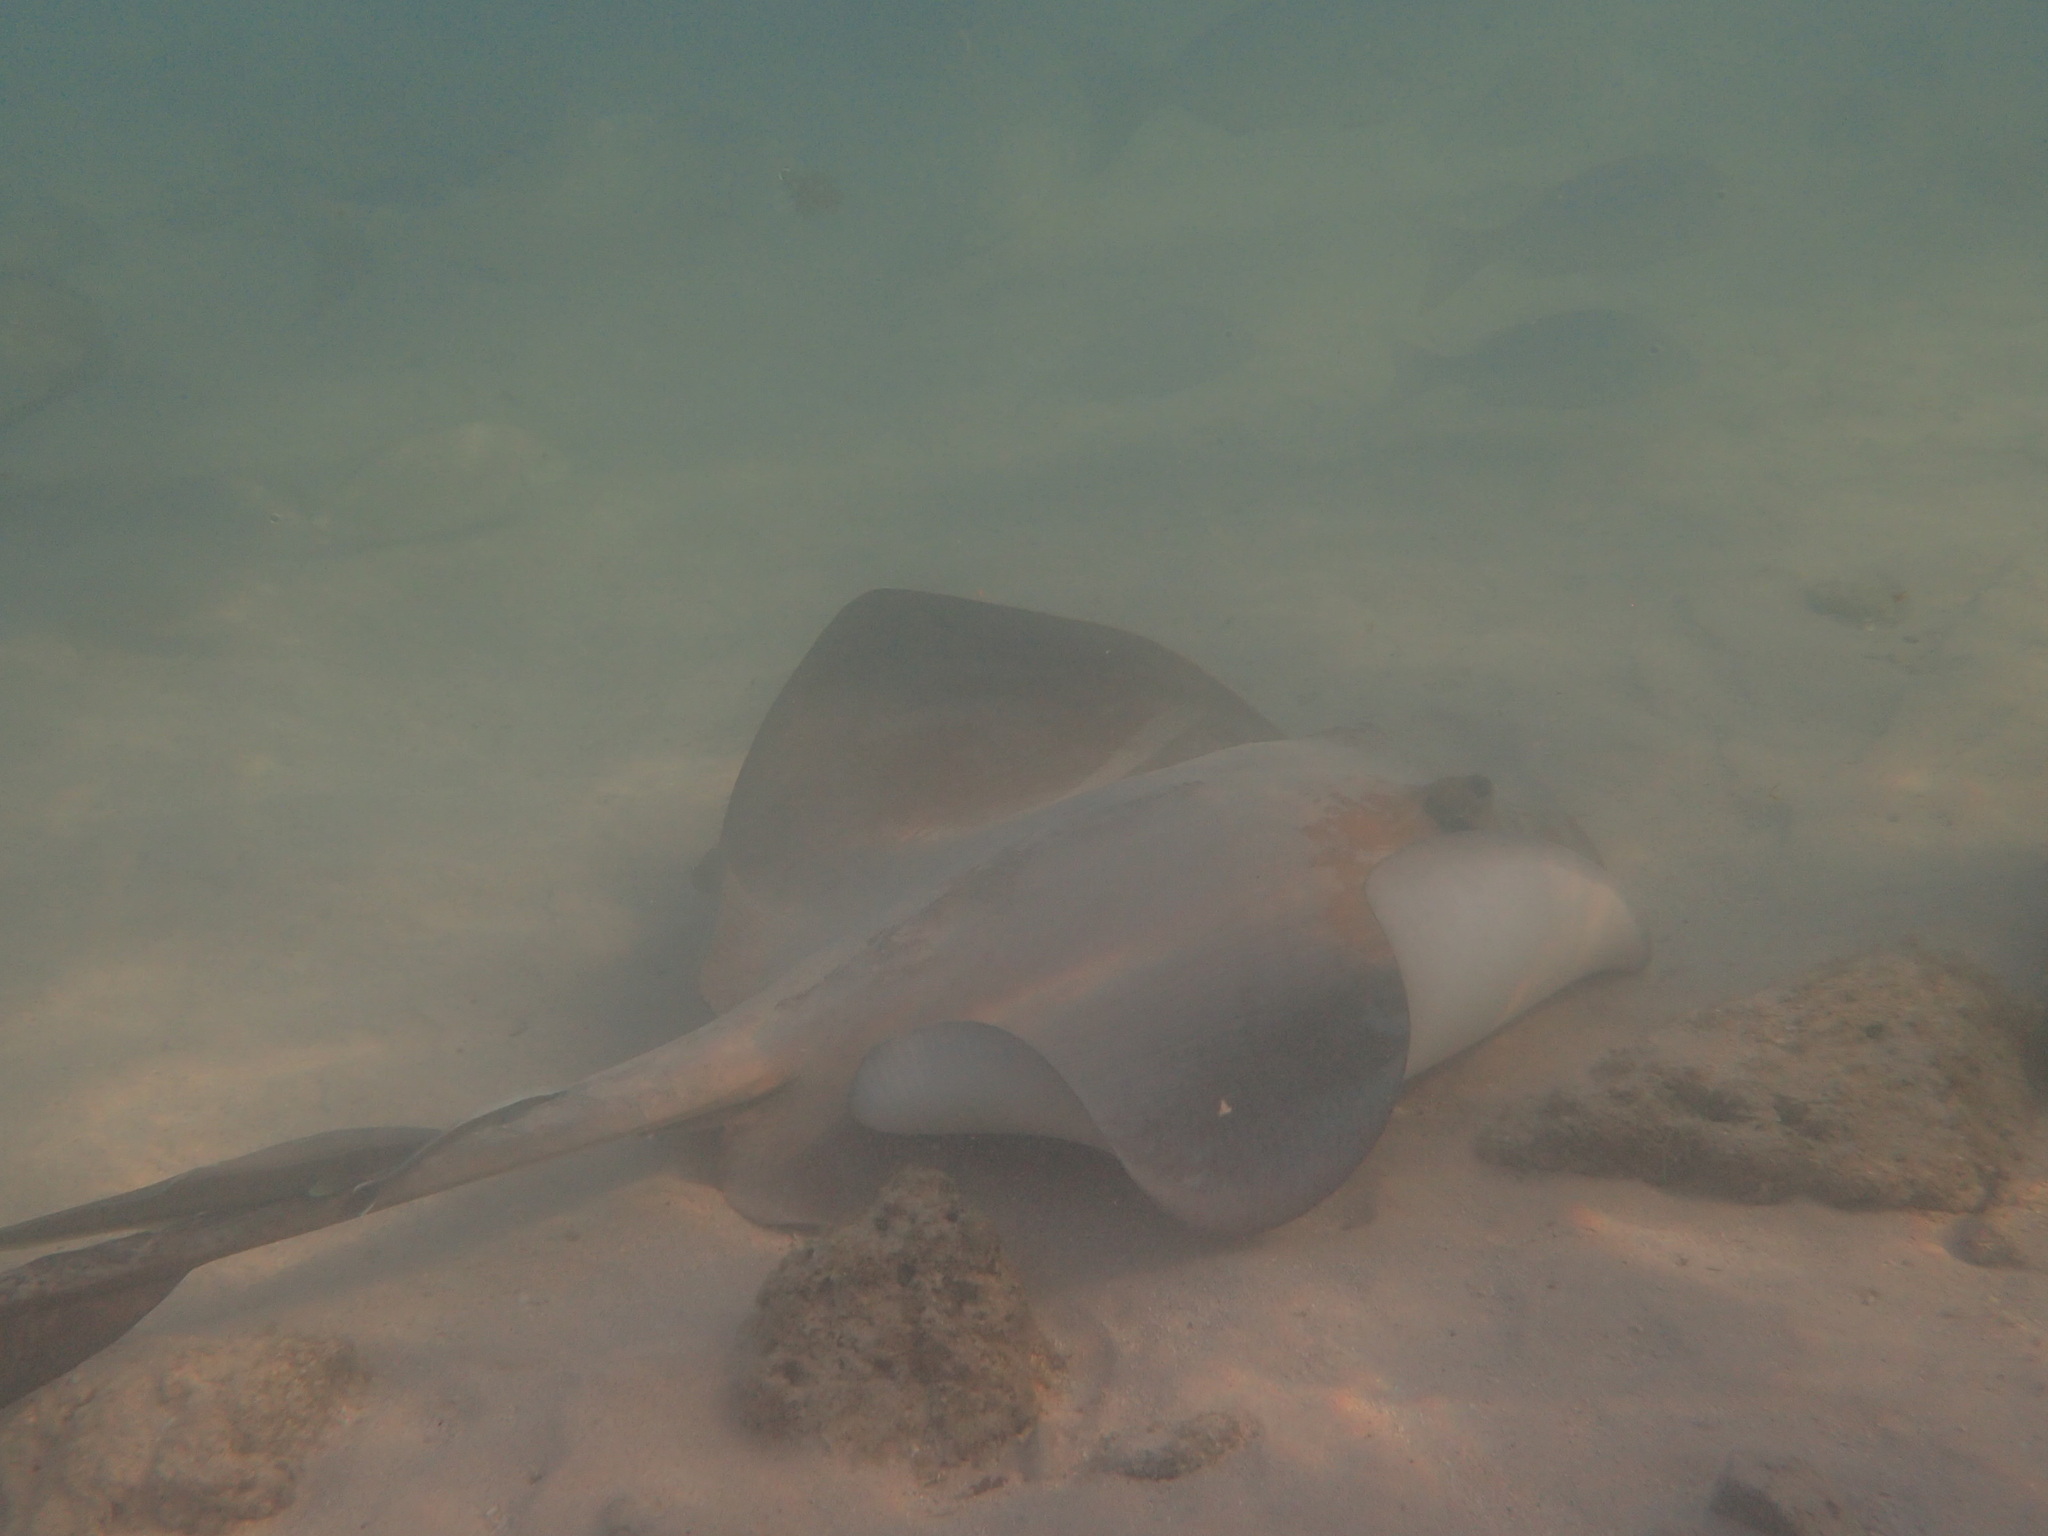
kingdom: Animalia
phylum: Chordata
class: Elasmobranchii
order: Myliobatiformes
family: Dasyatidae
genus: Pastinachus
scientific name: Pastinachus ater
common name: Banana-tail ray
